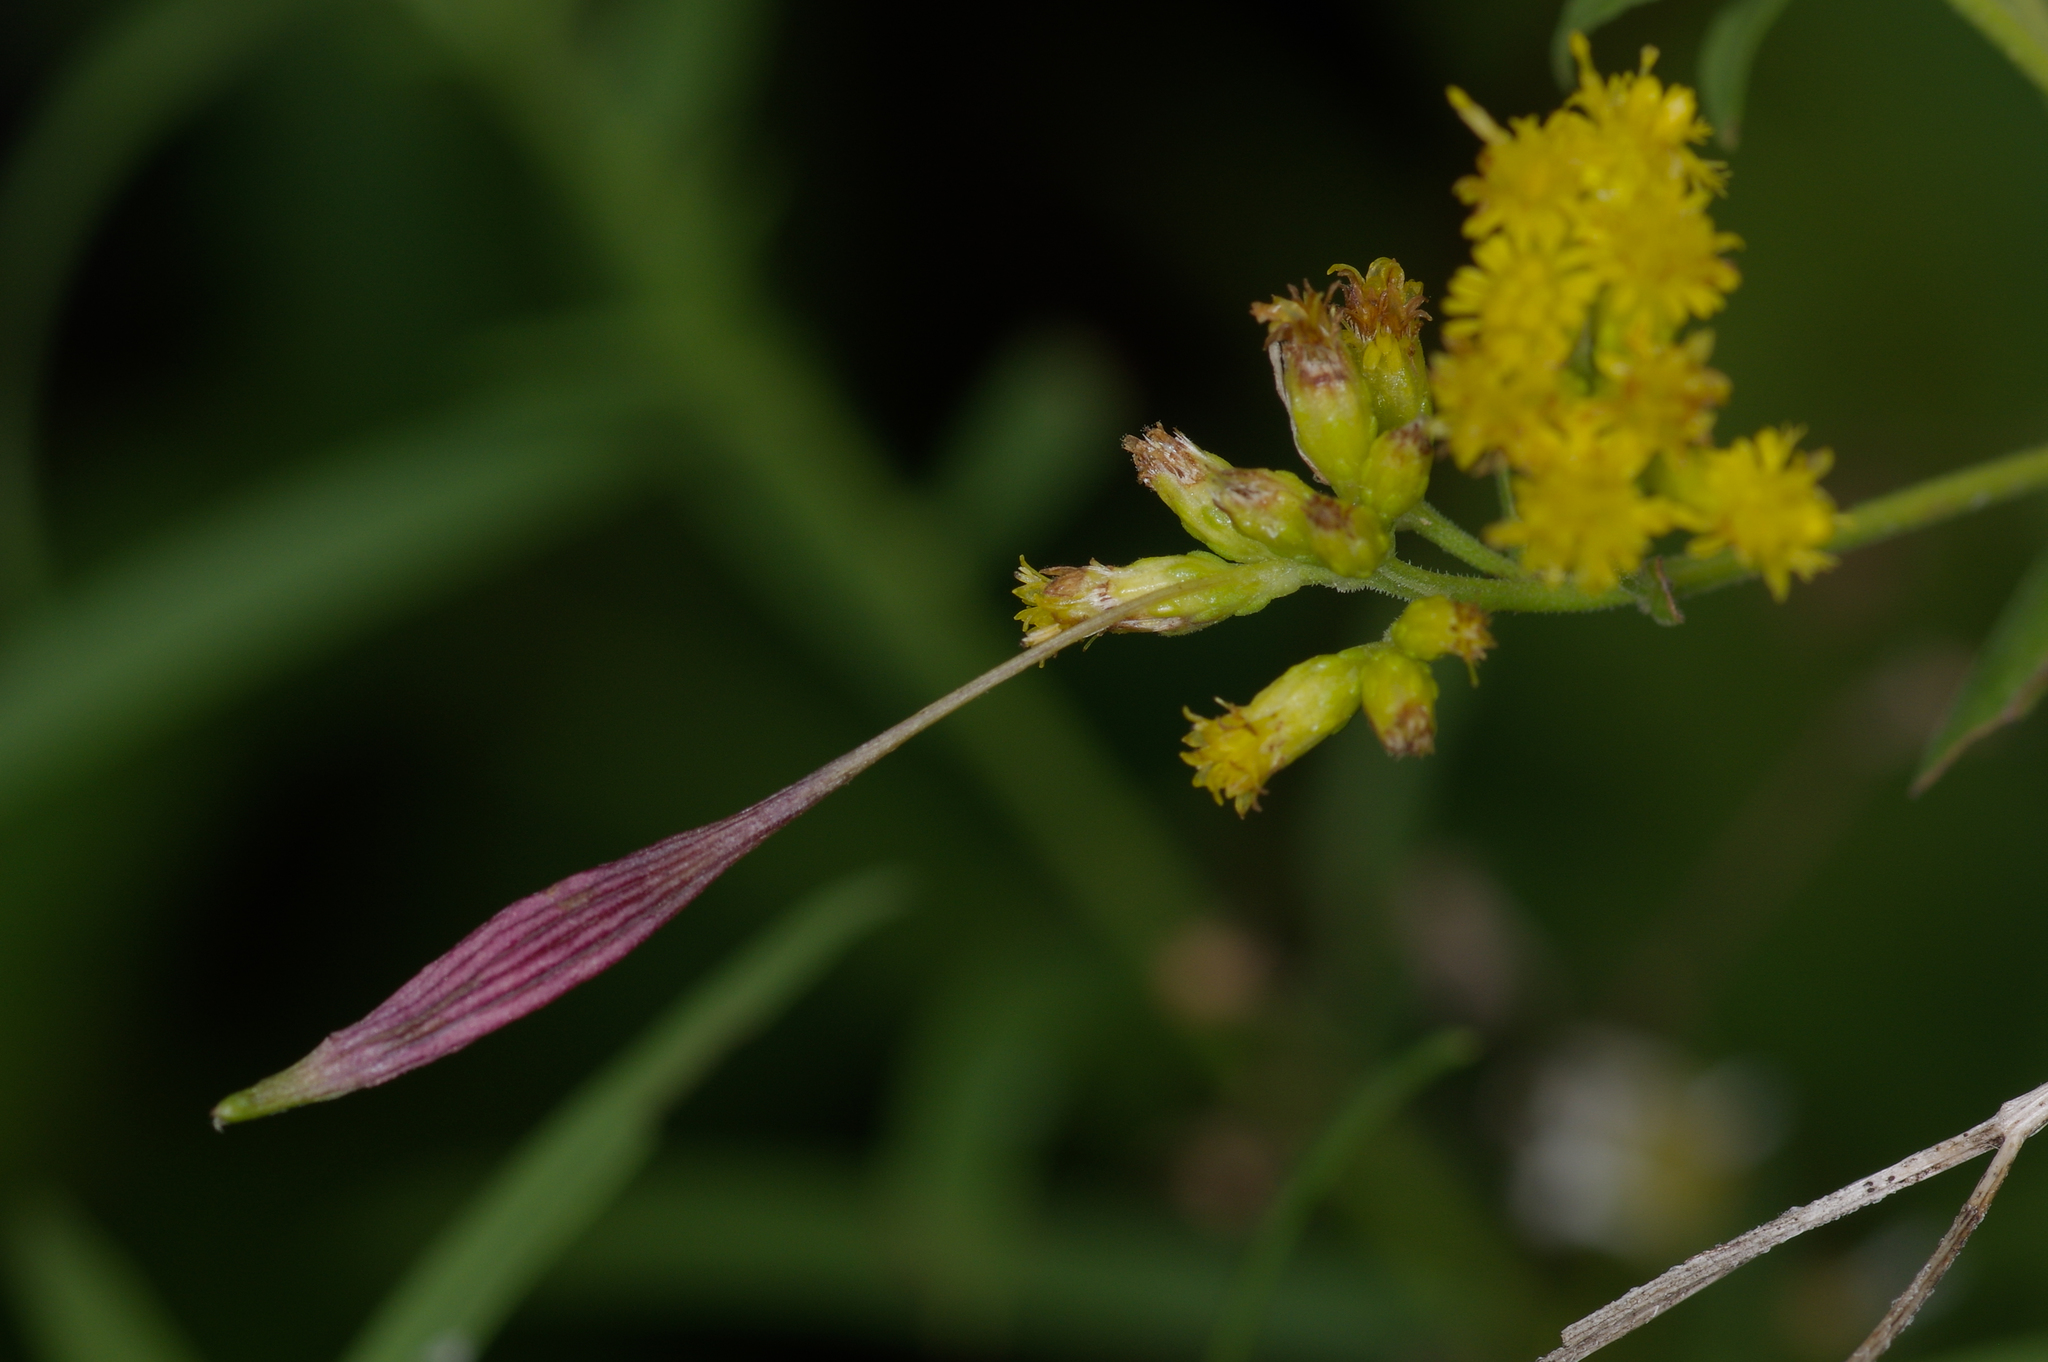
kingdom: Animalia
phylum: Arthropoda
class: Insecta
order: Diptera
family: Cecidomyiidae
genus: Rhopalomyia
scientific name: Rhopalomyia pedicellata
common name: Goldentop pedicellate gall midge
